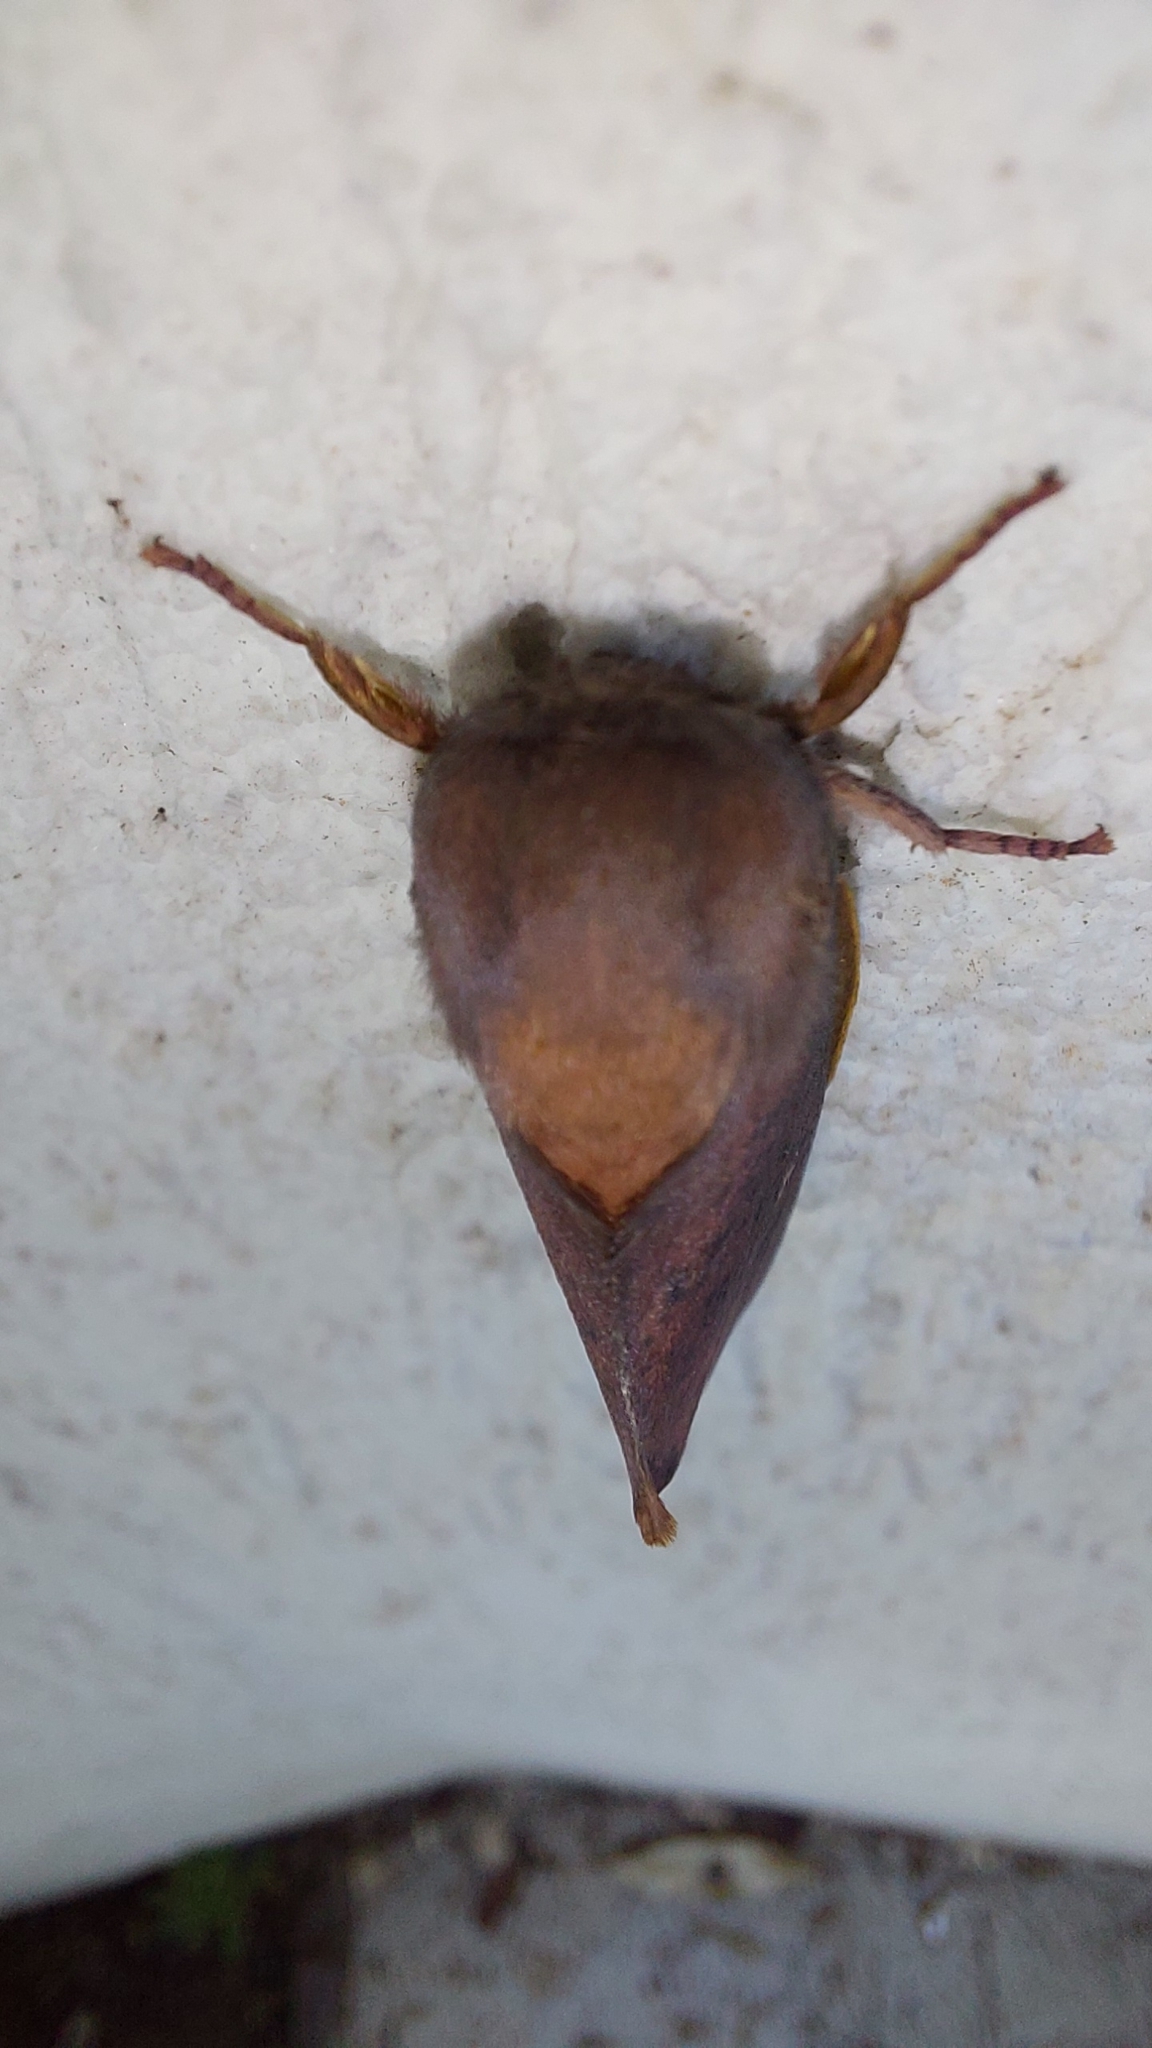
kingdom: Animalia
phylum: Arthropoda
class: Insecta
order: Lepidoptera
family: Saturniidae
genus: Almeidella
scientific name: Almeidella corrupta
